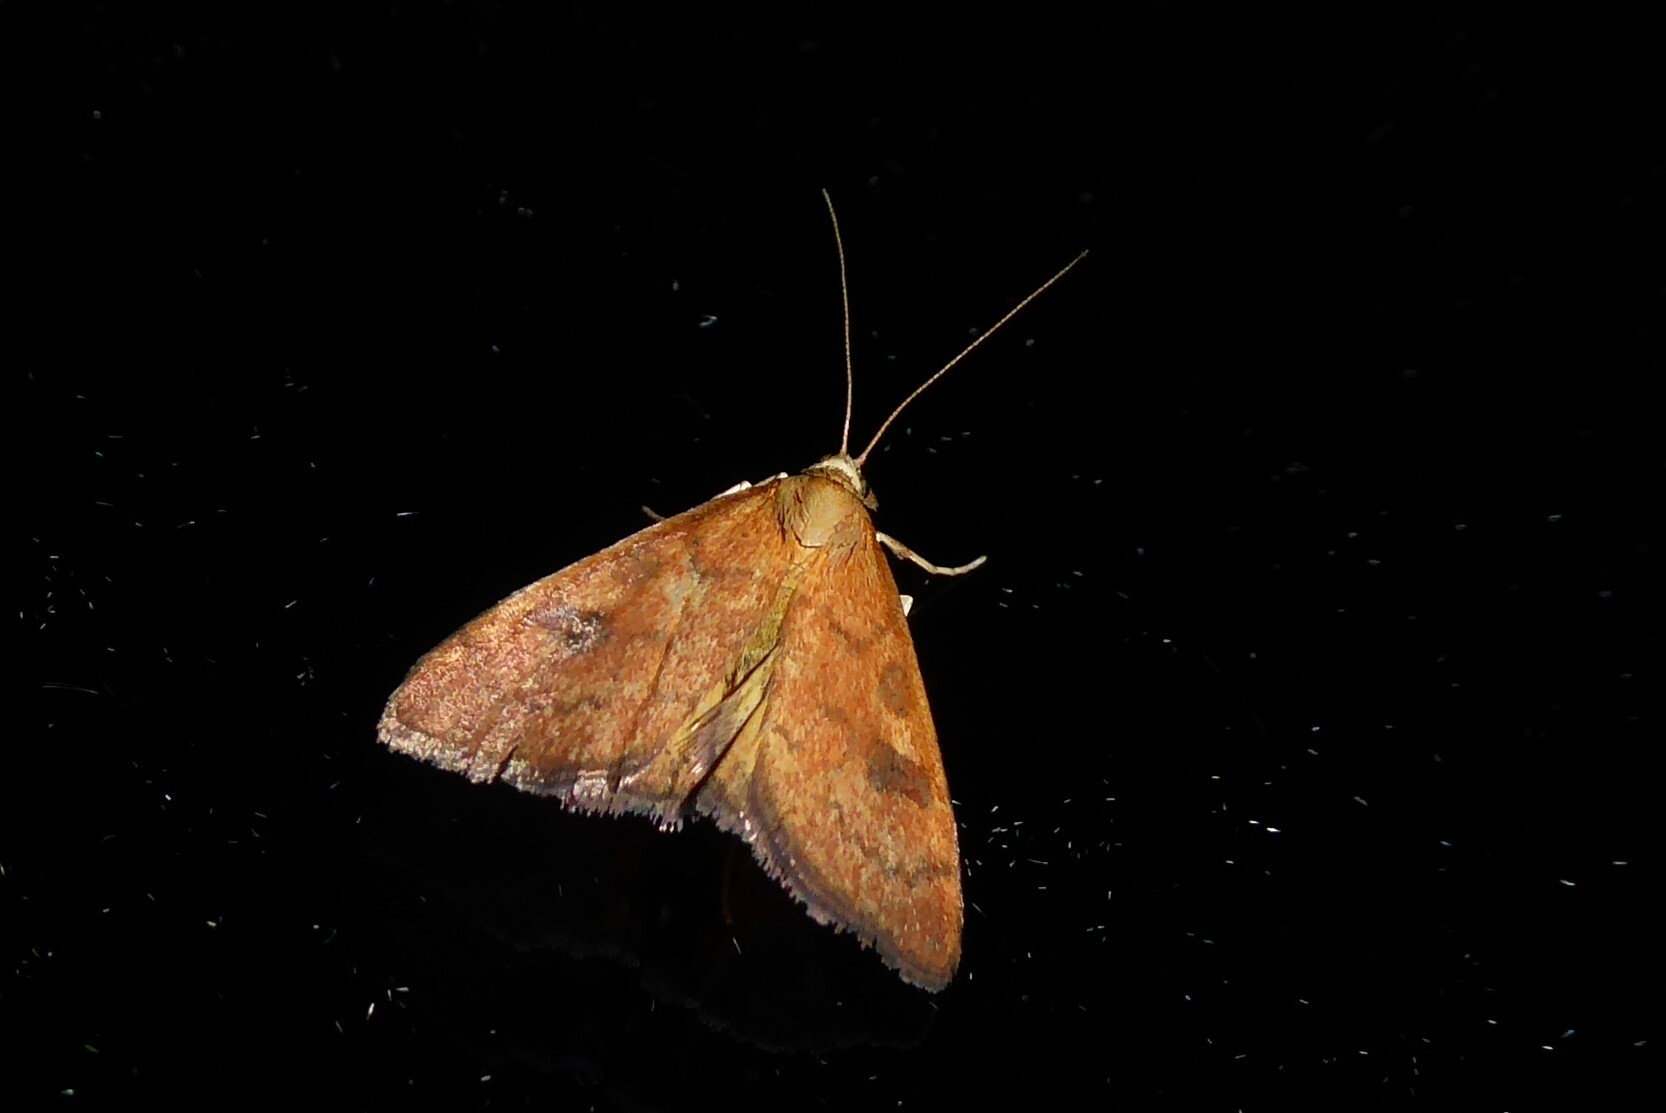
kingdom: Animalia
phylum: Arthropoda
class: Insecta
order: Lepidoptera
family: Crambidae
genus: Udea
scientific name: Udea Mnesictena flavidalis
